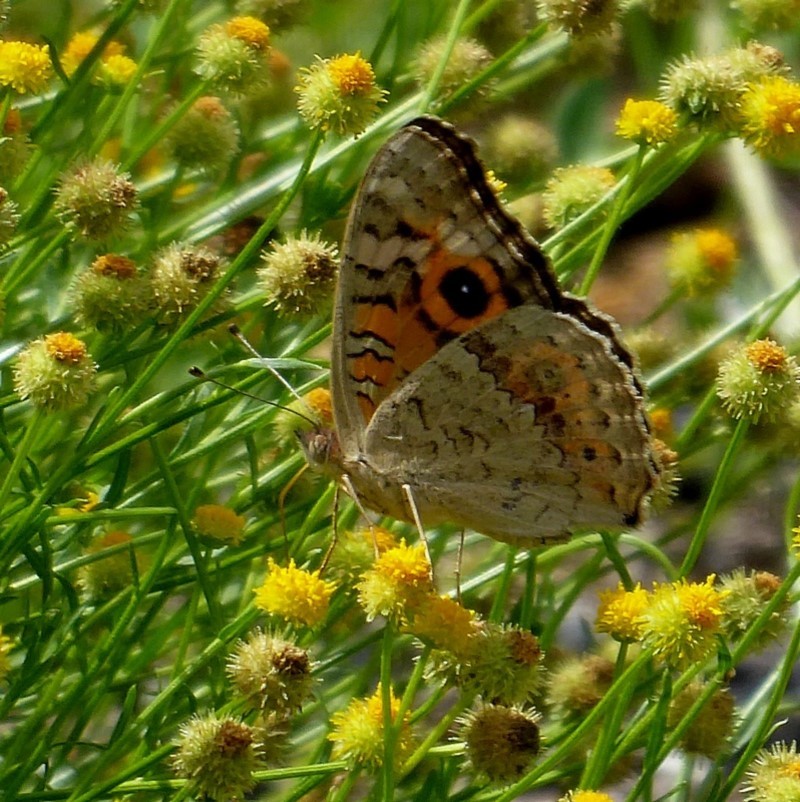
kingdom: Animalia
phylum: Arthropoda
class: Insecta
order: Lepidoptera
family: Nymphalidae
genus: Junonia
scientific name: Junonia villida
